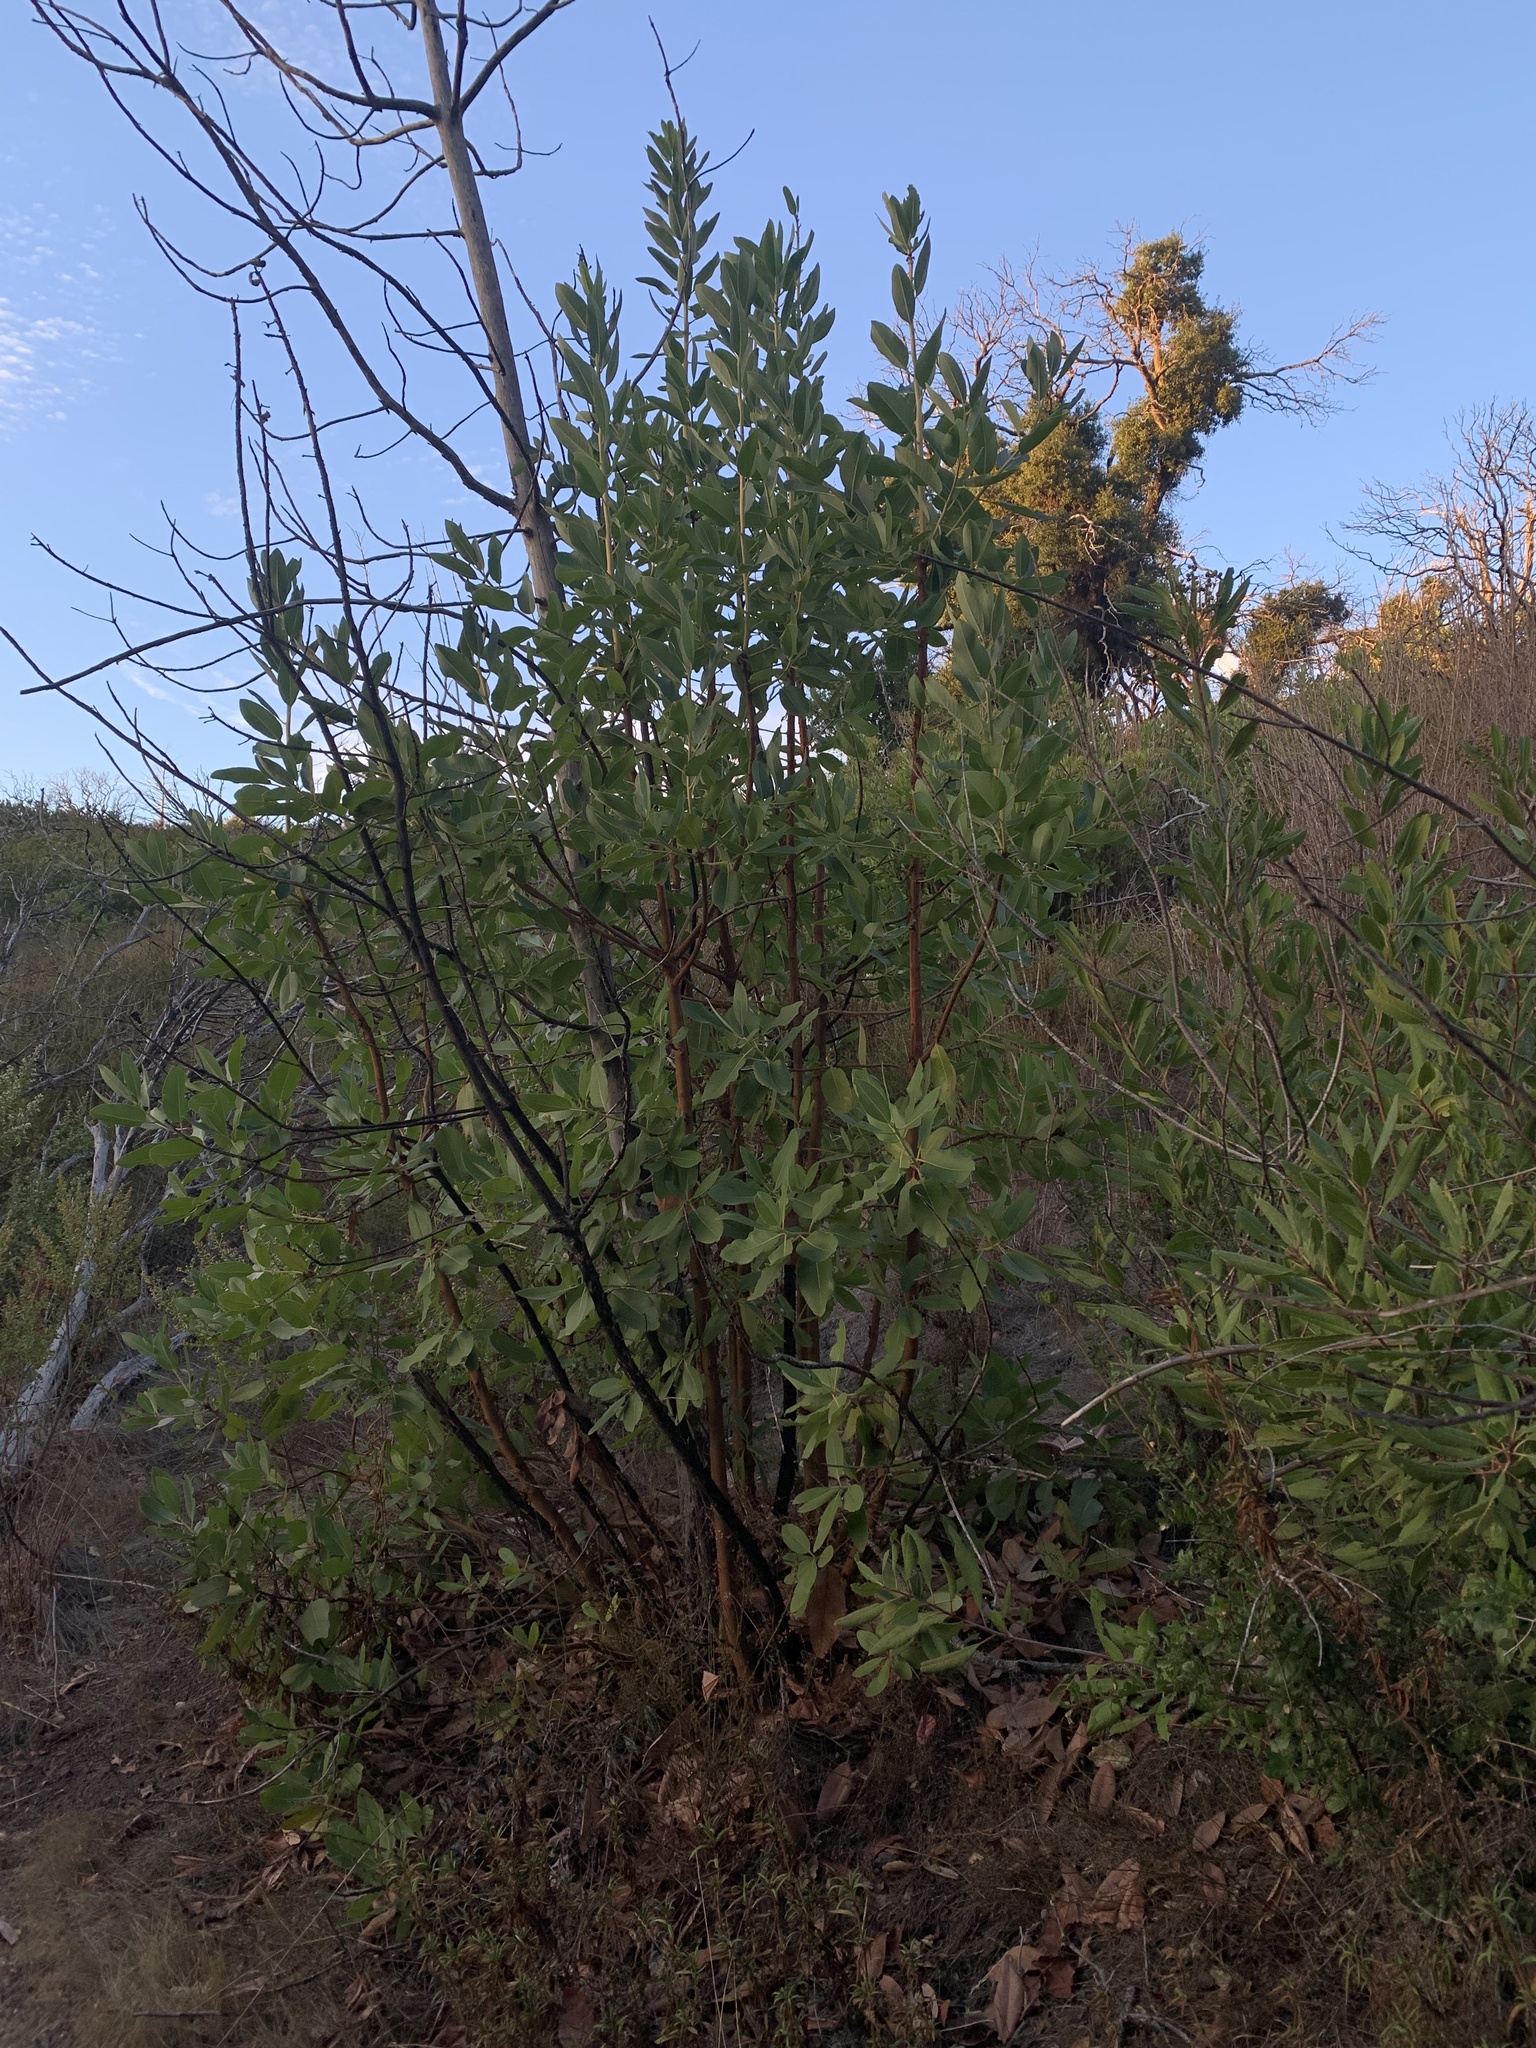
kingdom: Plantae
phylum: Tracheophyta
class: Magnoliopsida
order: Ericales
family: Ericaceae
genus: Arbutus
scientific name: Arbutus menziesii
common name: Pacific madrone
